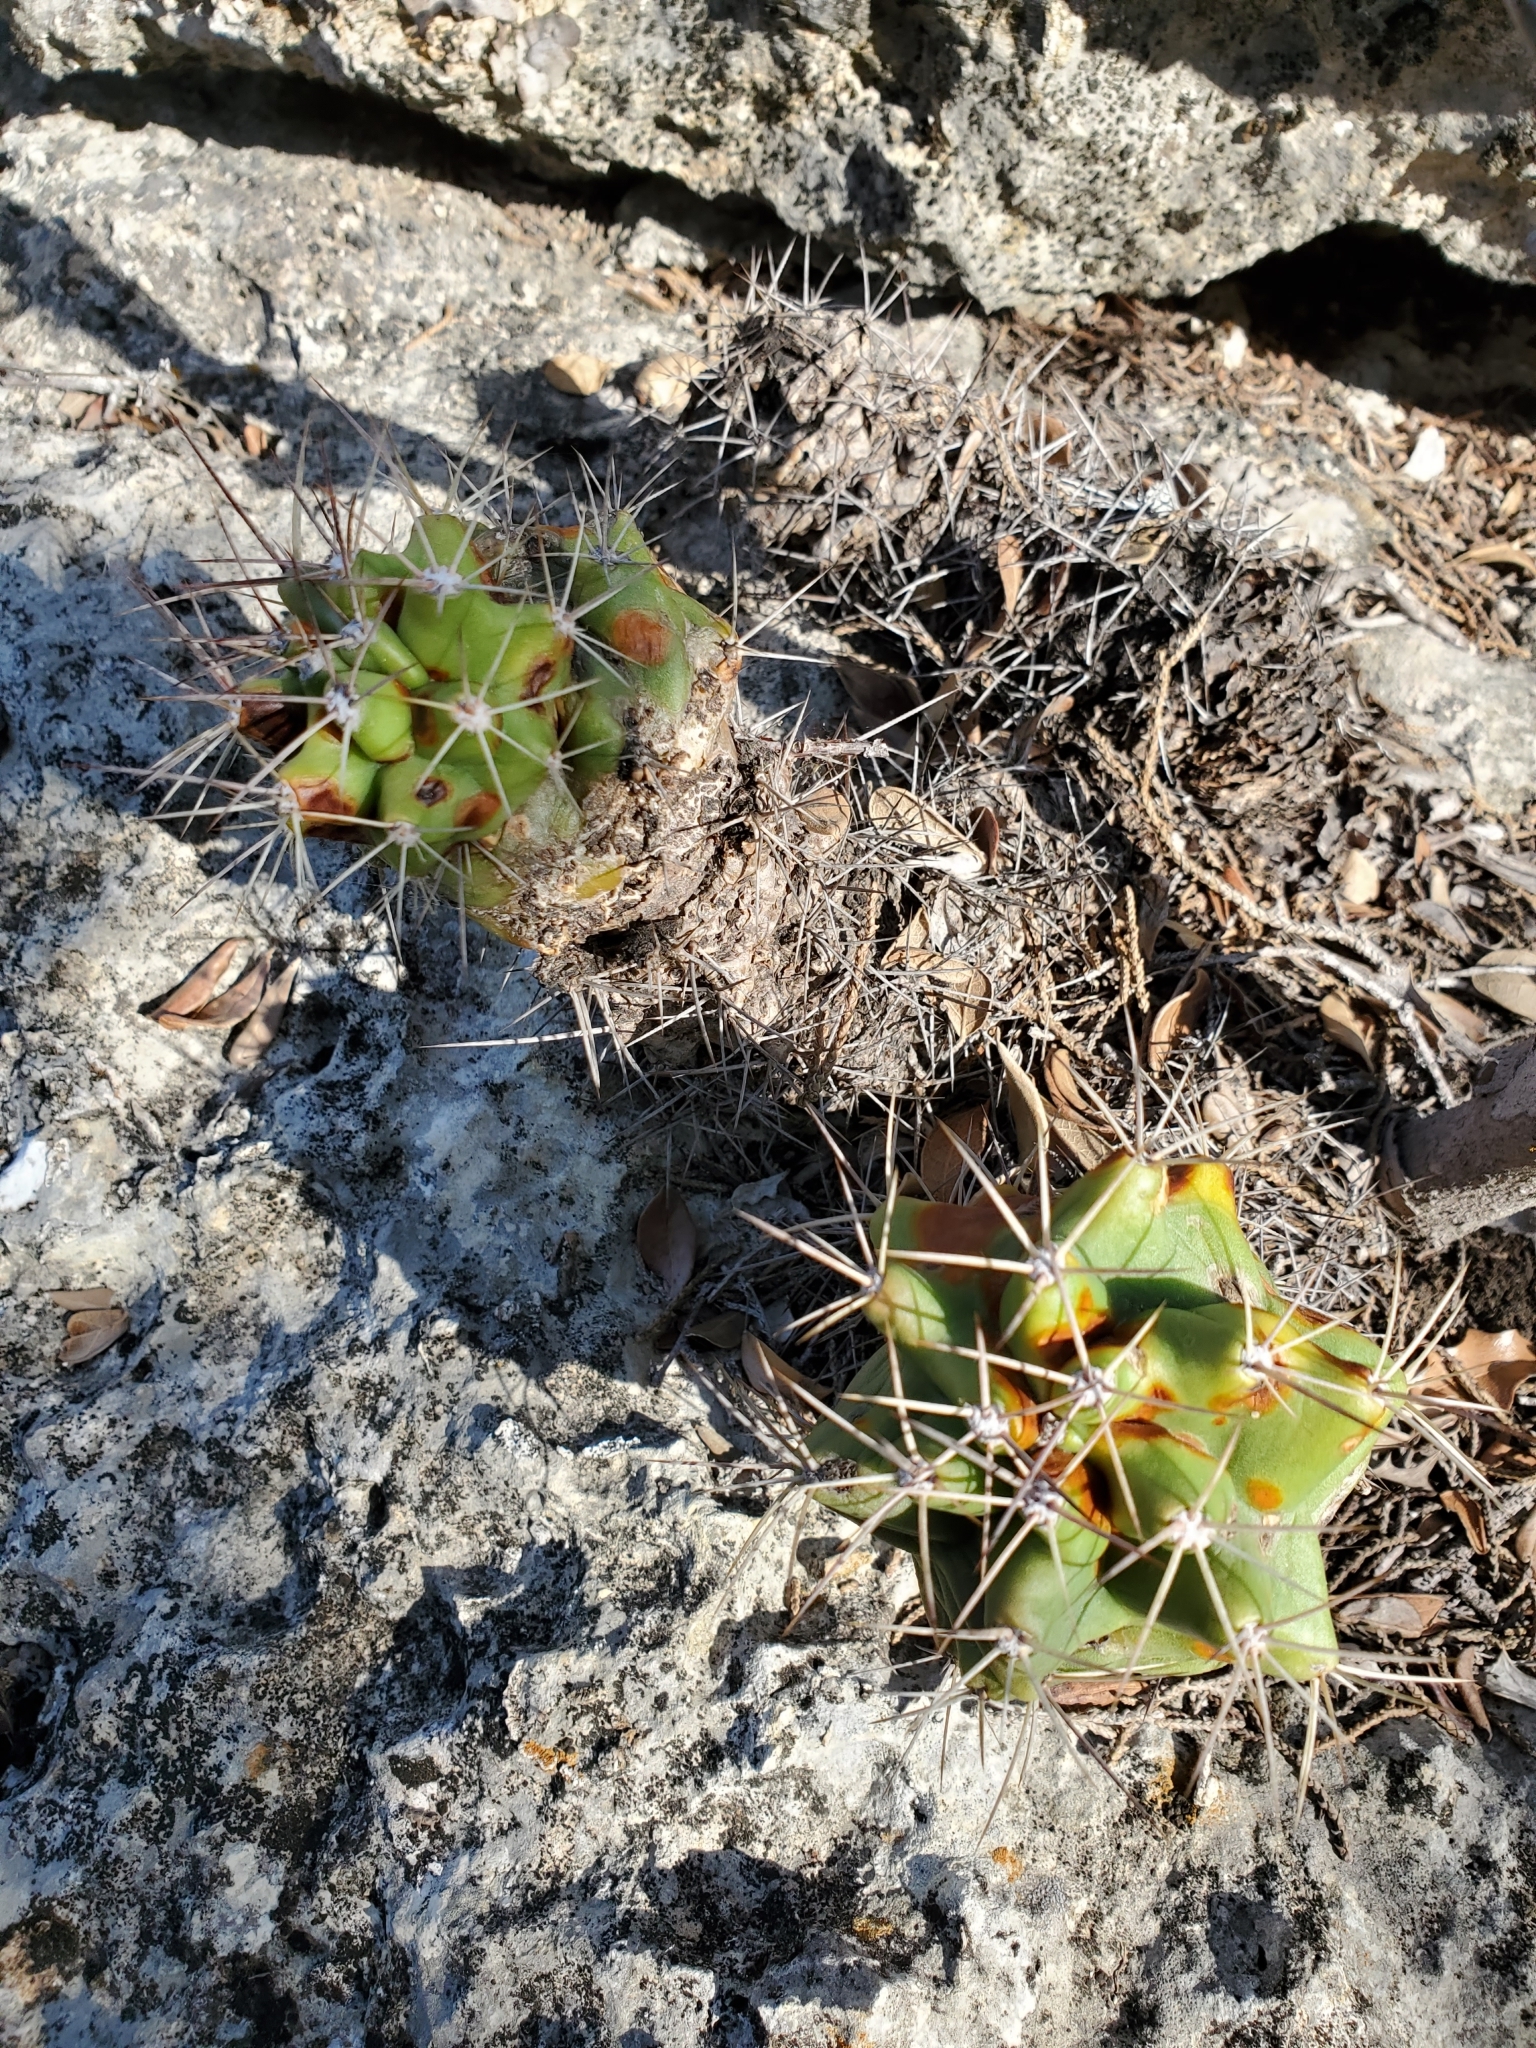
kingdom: Plantae
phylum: Tracheophyta
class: Magnoliopsida
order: Caryophyllales
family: Cactaceae
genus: Echinocereus
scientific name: Echinocereus coccineus
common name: Scarlet hedgehog cactus
